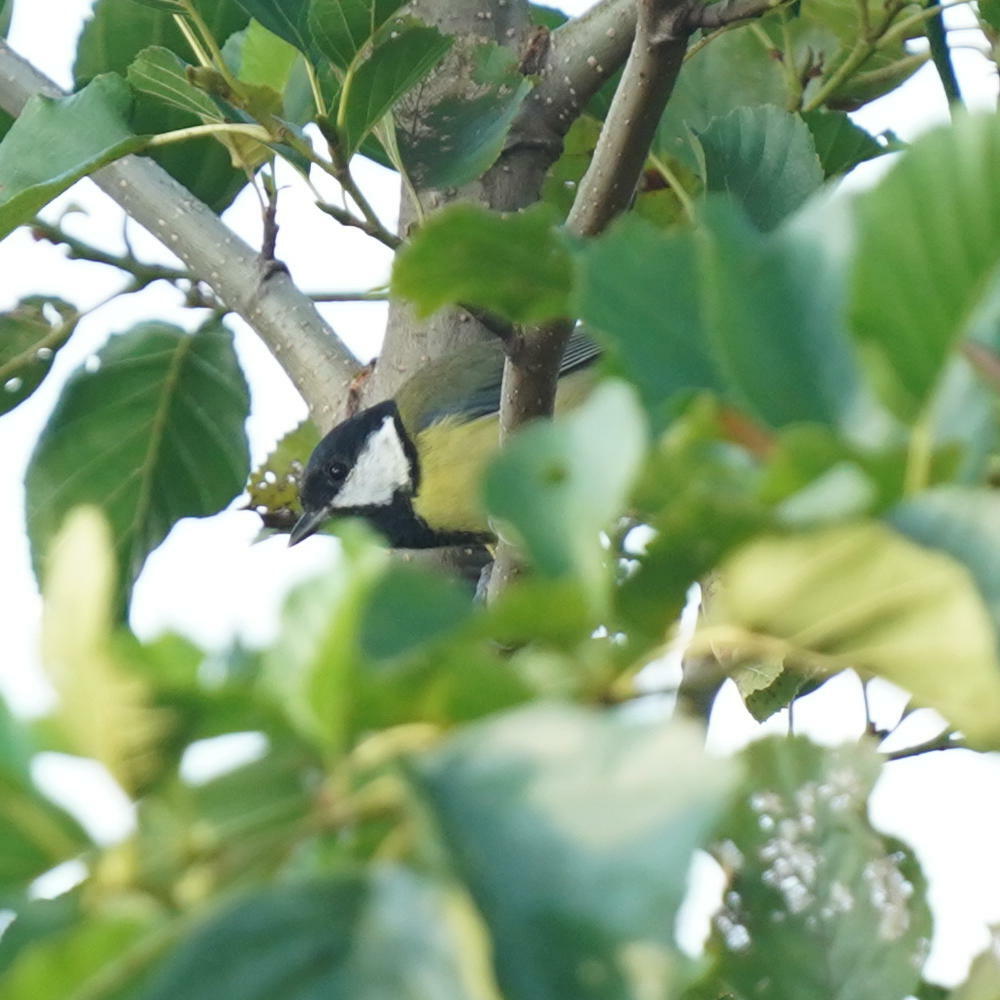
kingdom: Animalia
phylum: Chordata
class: Aves
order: Passeriformes
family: Paridae
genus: Parus
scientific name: Parus major
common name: Great tit
